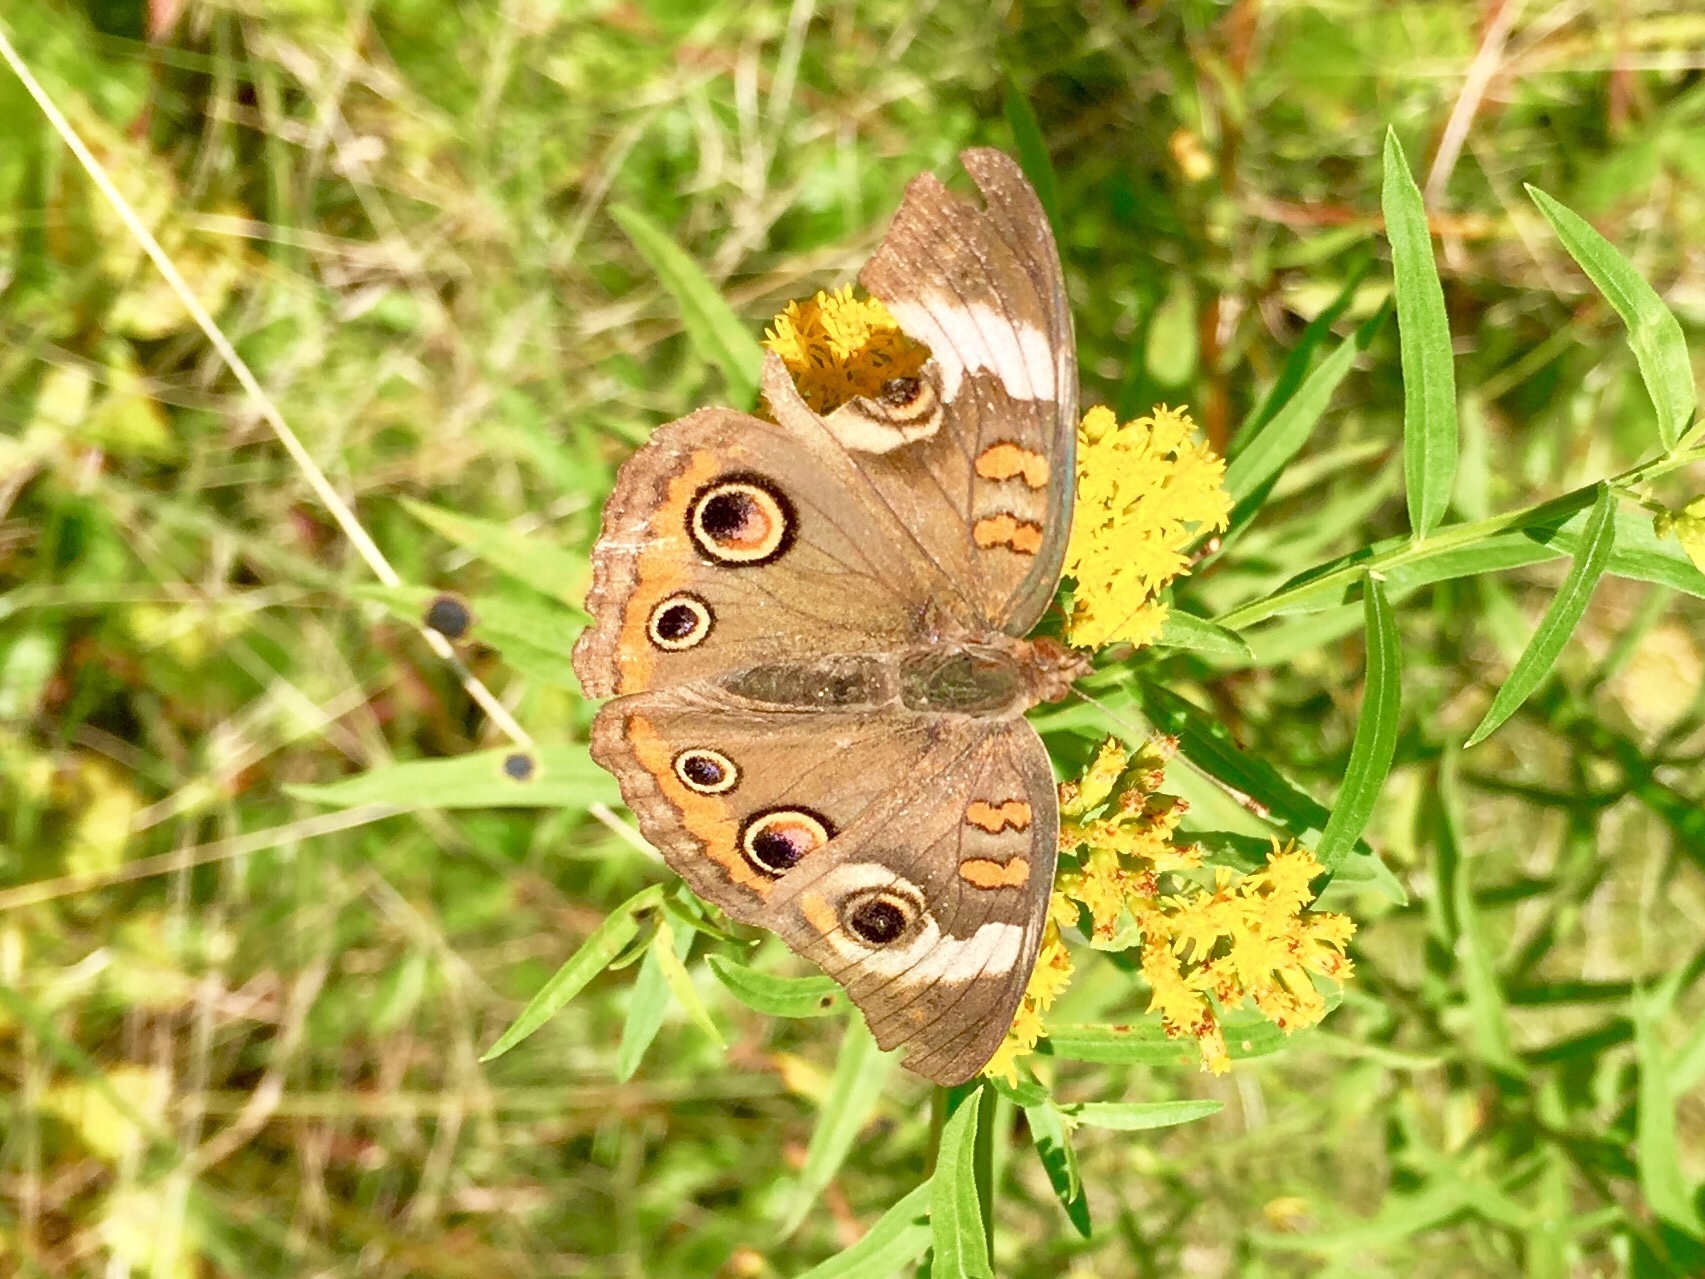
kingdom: Animalia
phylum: Arthropoda
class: Insecta
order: Lepidoptera
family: Nymphalidae
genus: Junonia
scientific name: Junonia coenia
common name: Common buckeye
